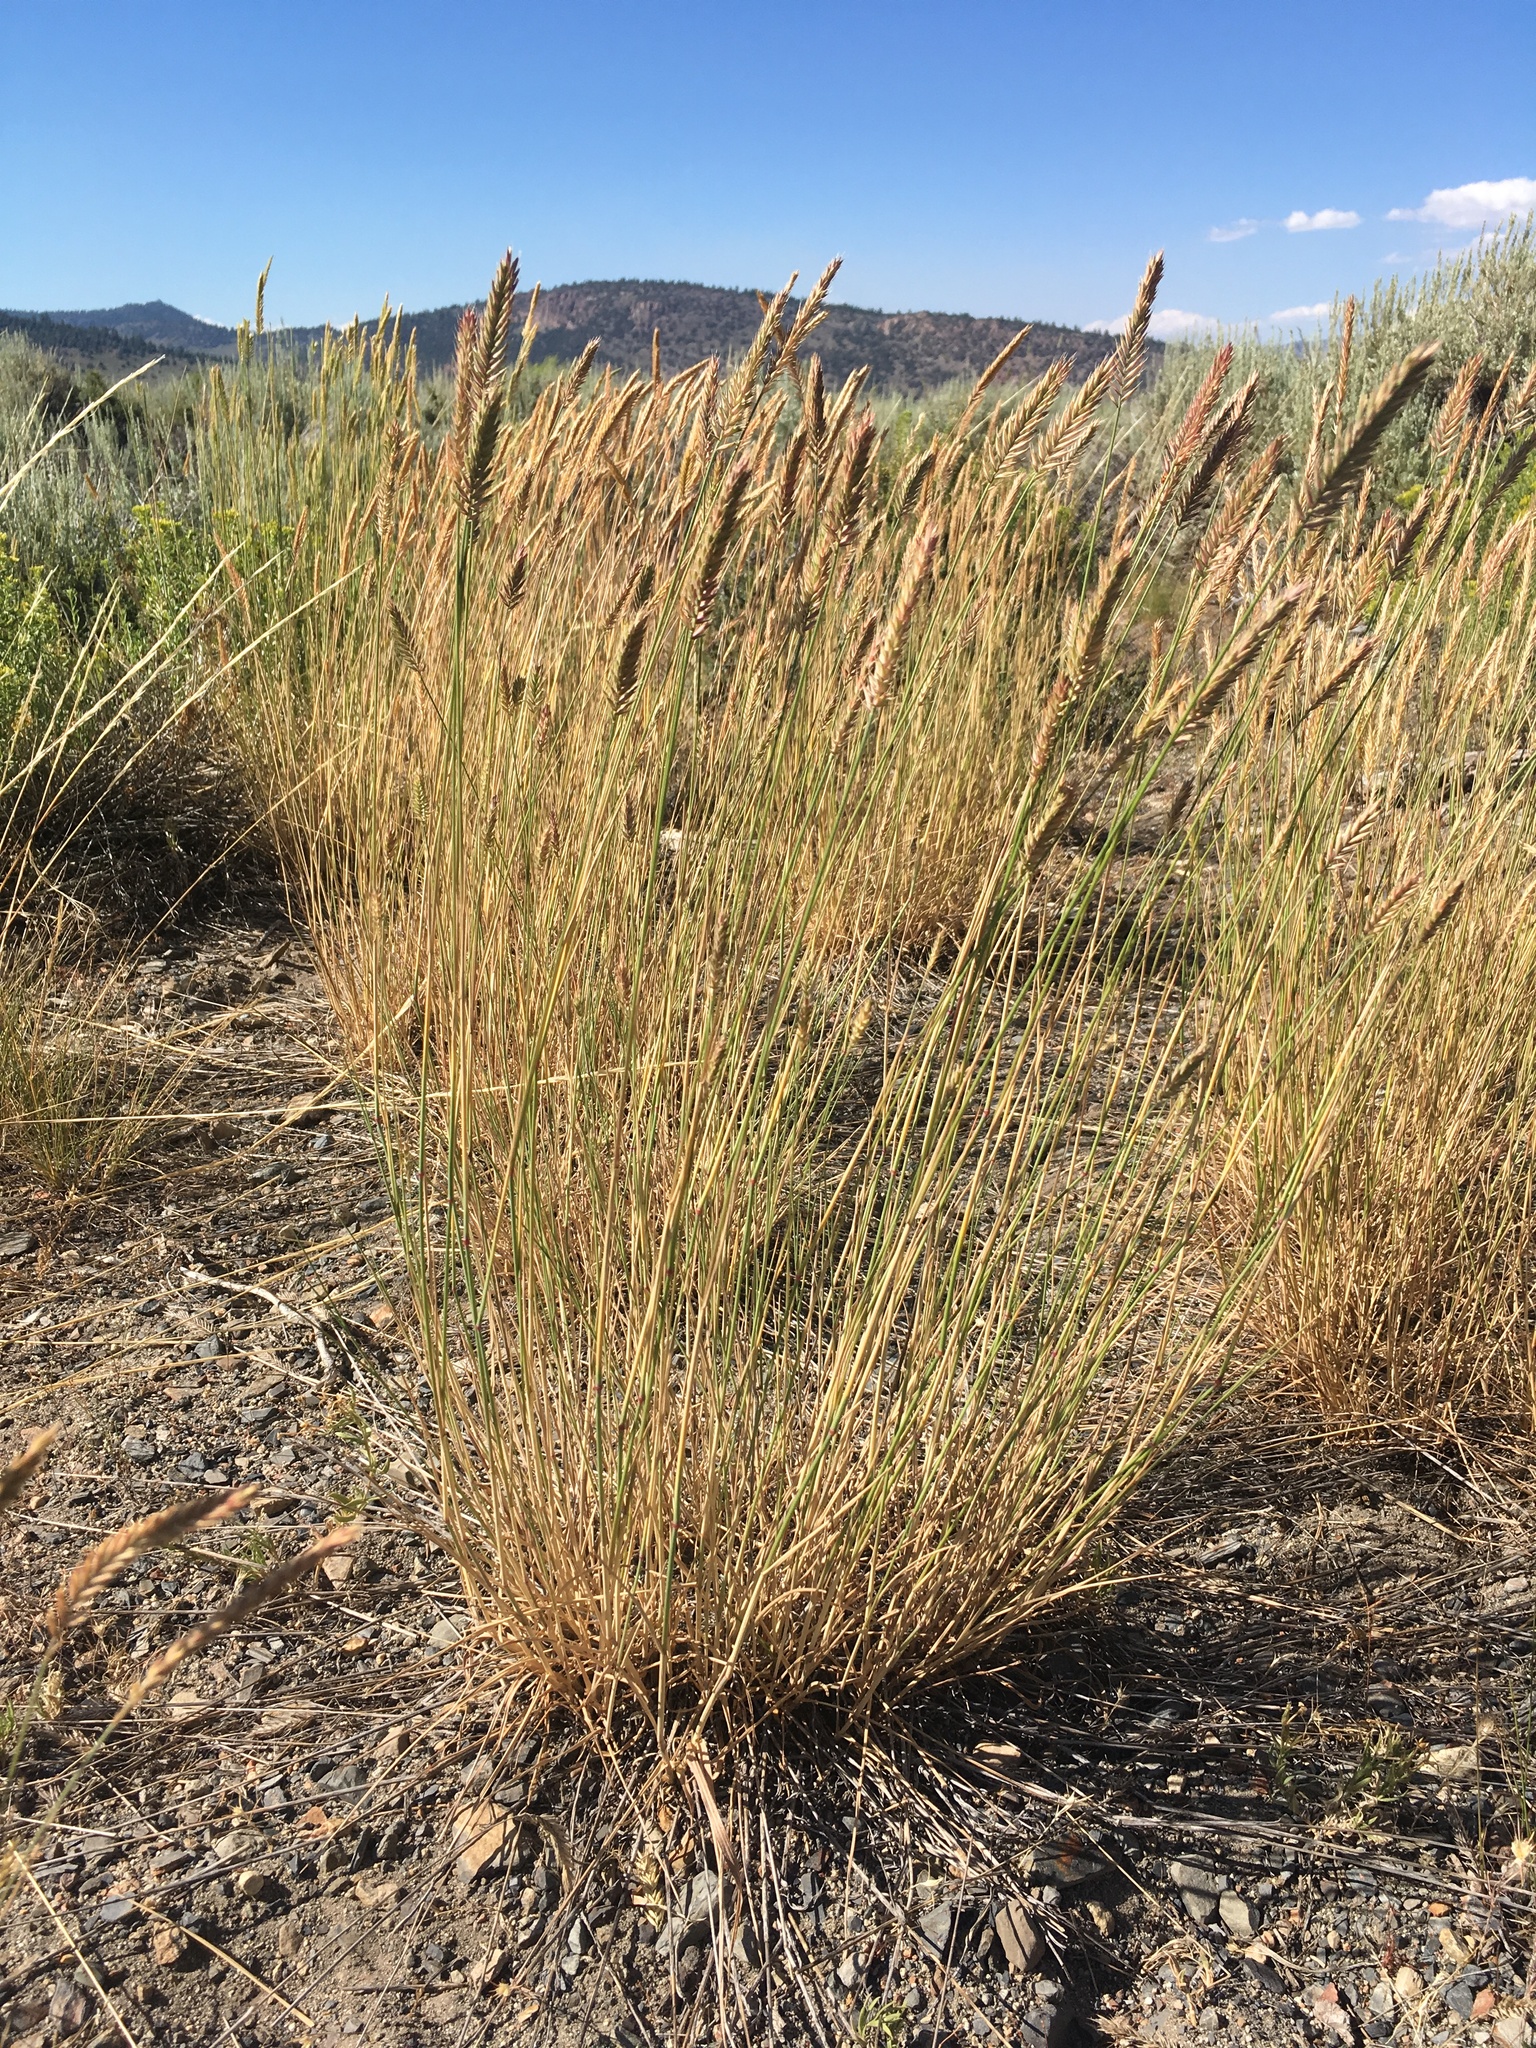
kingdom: Plantae
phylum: Tracheophyta
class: Liliopsida
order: Poales
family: Poaceae
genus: Agropyron
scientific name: Agropyron cristatum
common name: Crested wheatgrass
